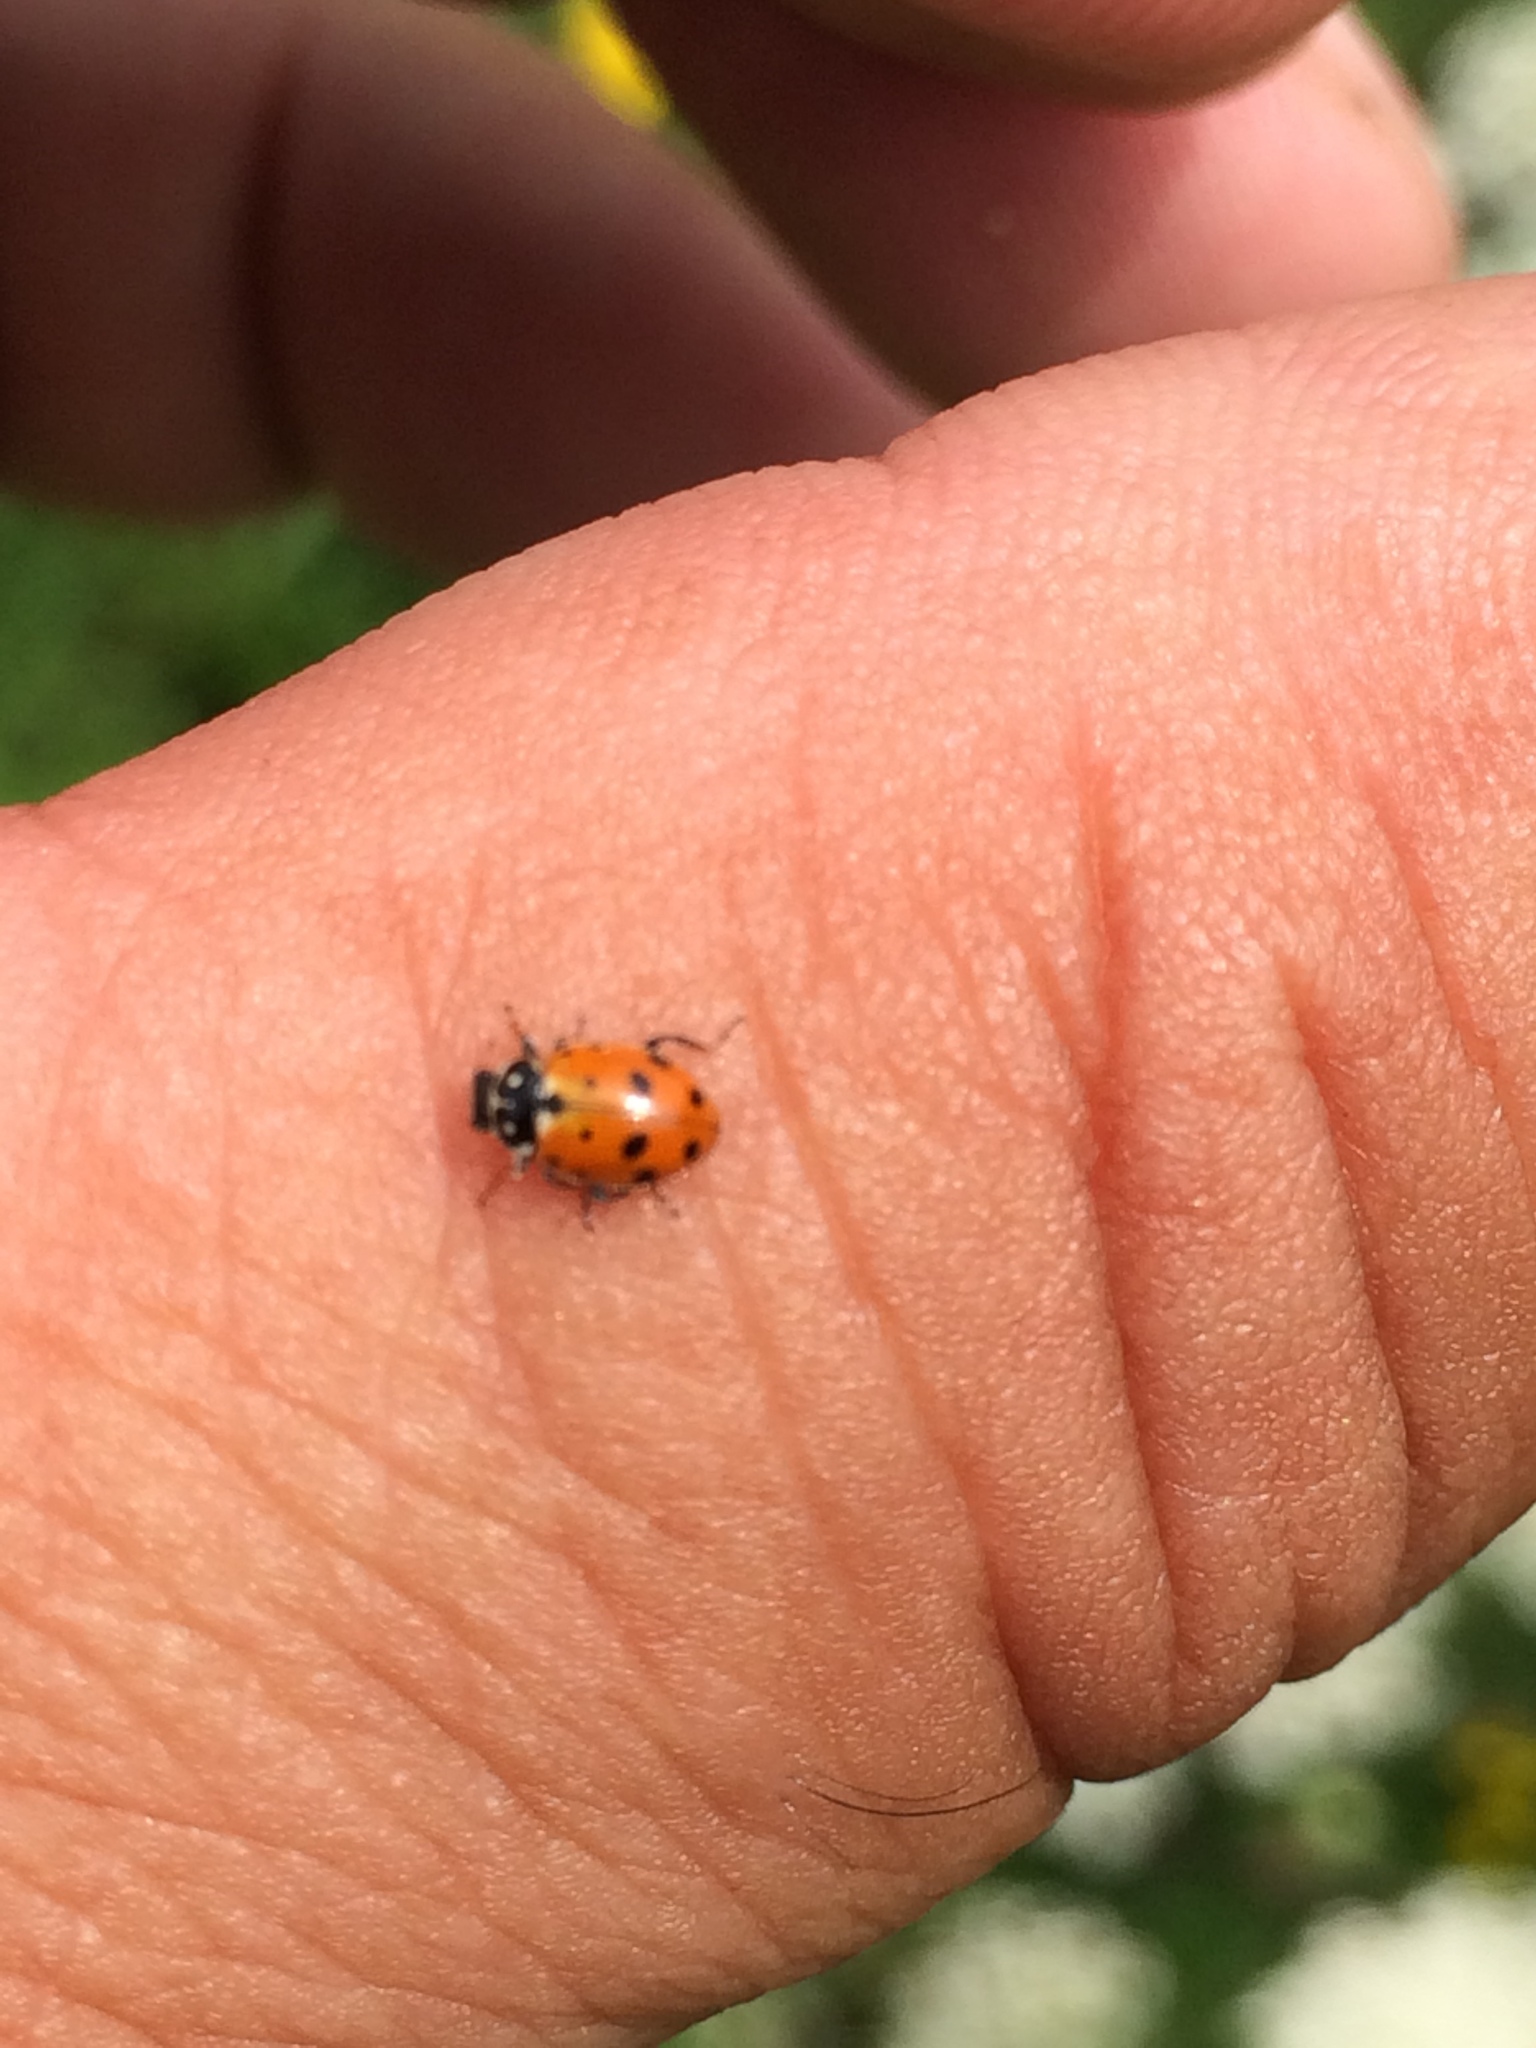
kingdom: Animalia
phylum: Arthropoda
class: Insecta
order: Coleoptera
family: Coccinellidae
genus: Hippodamia
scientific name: Hippodamia variegata
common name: Ladybird beetle
